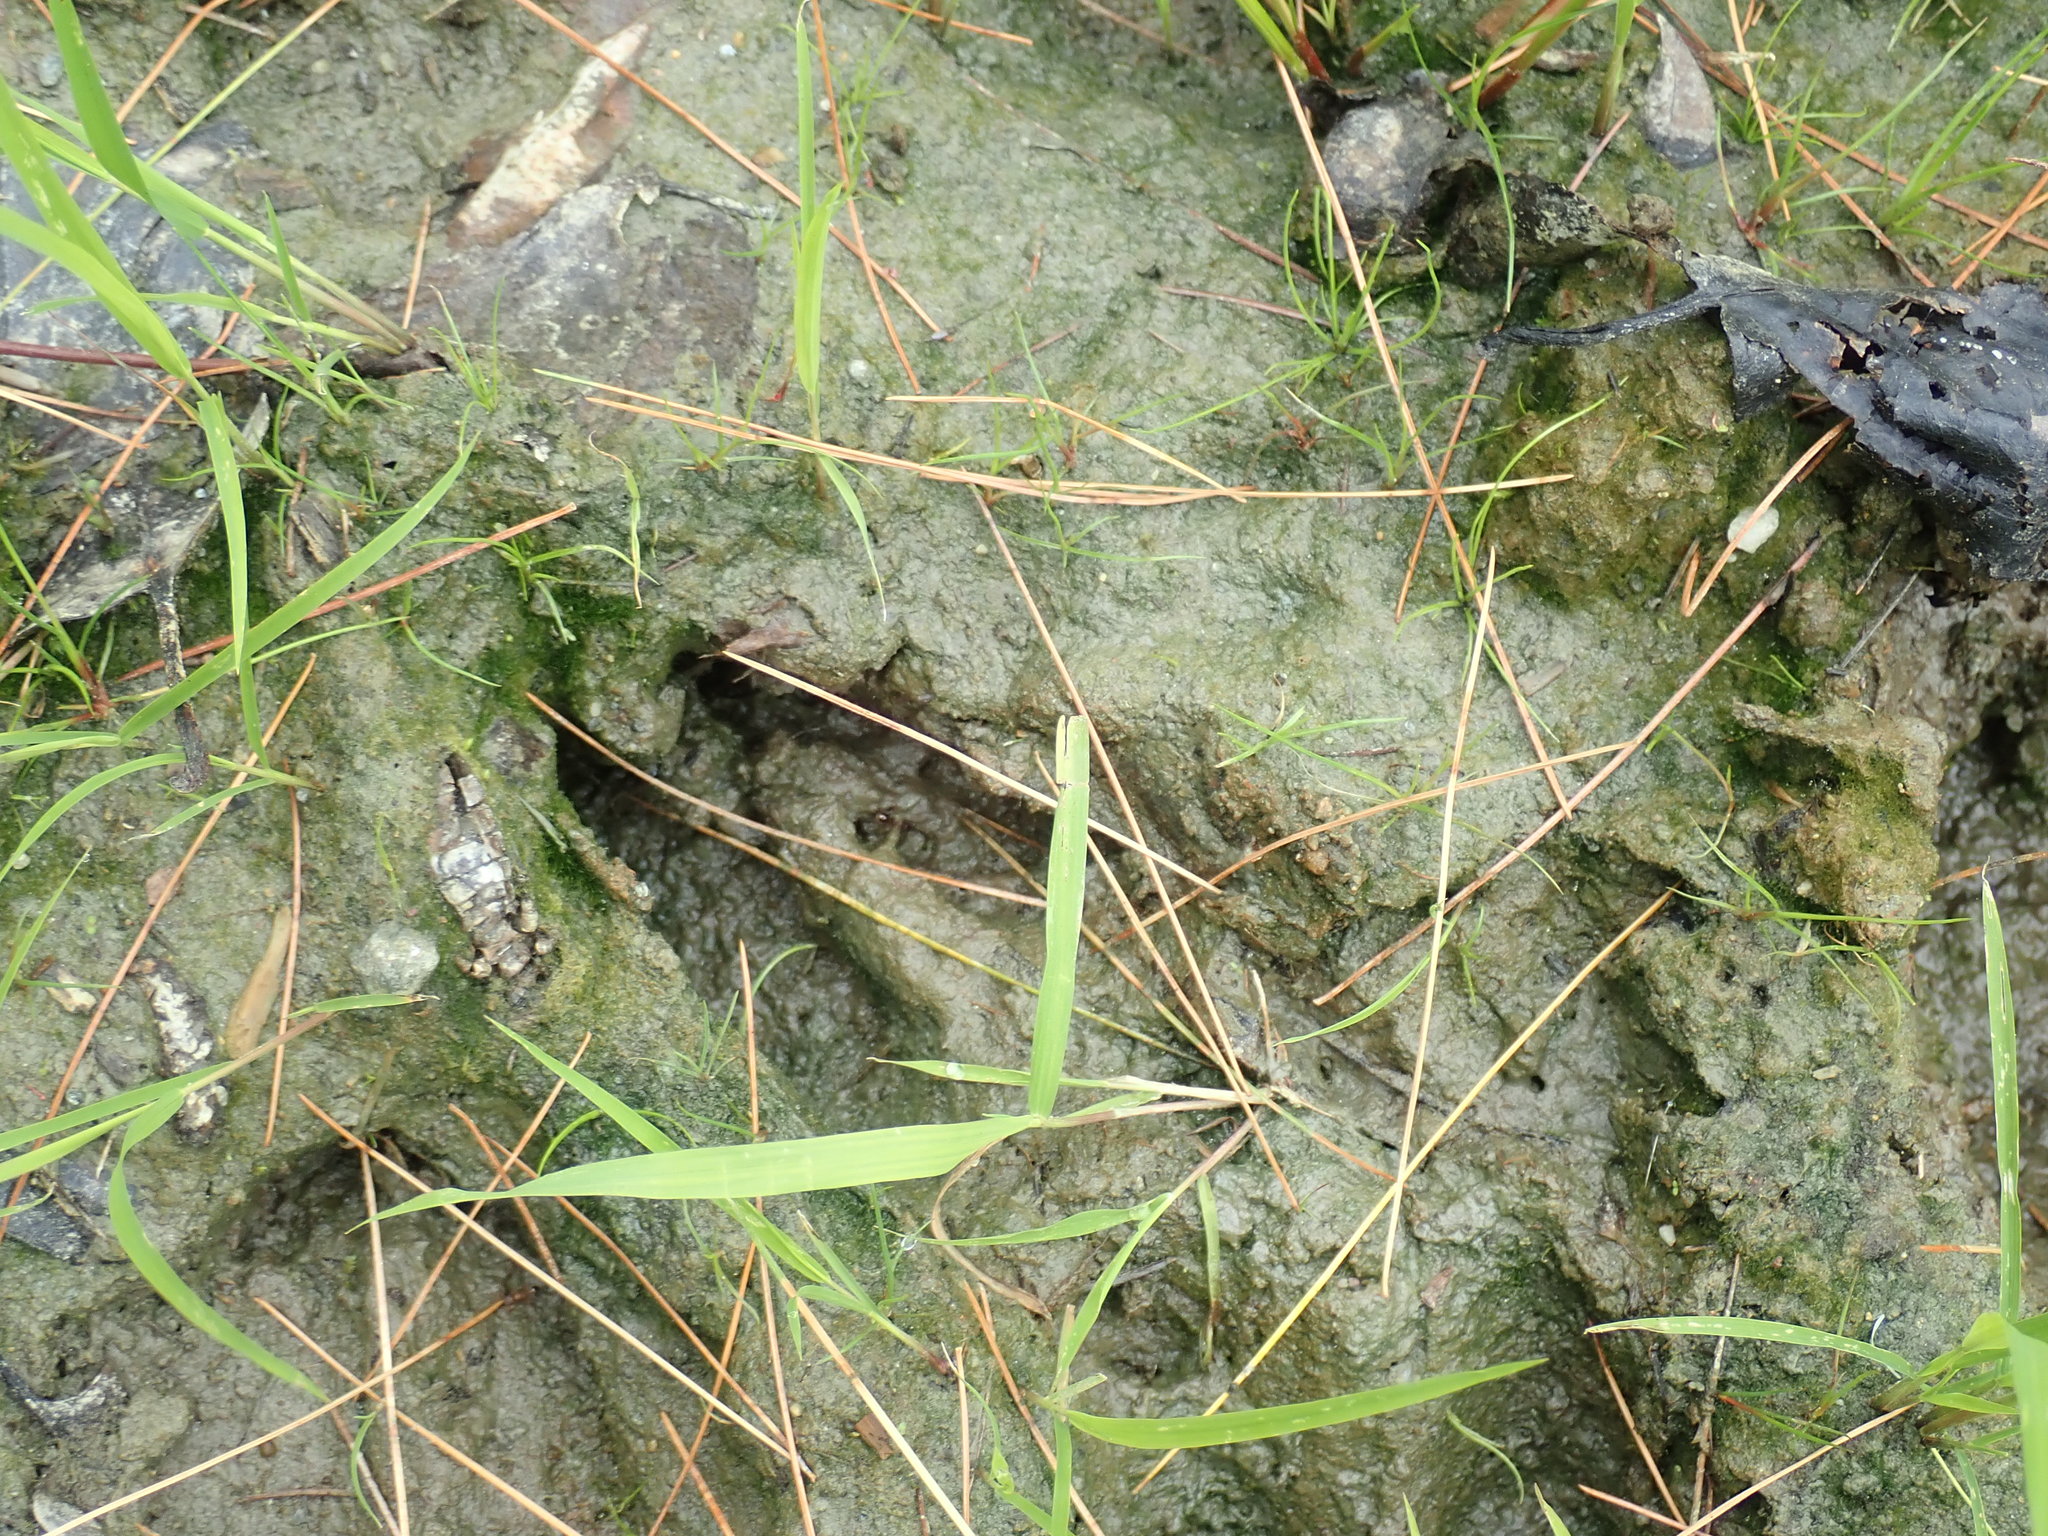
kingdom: Animalia
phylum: Chordata
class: Mammalia
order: Artiodactyla
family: Cervidae
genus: Odocoileus
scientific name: Odocoileus virginianus
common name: White-tailed deer
